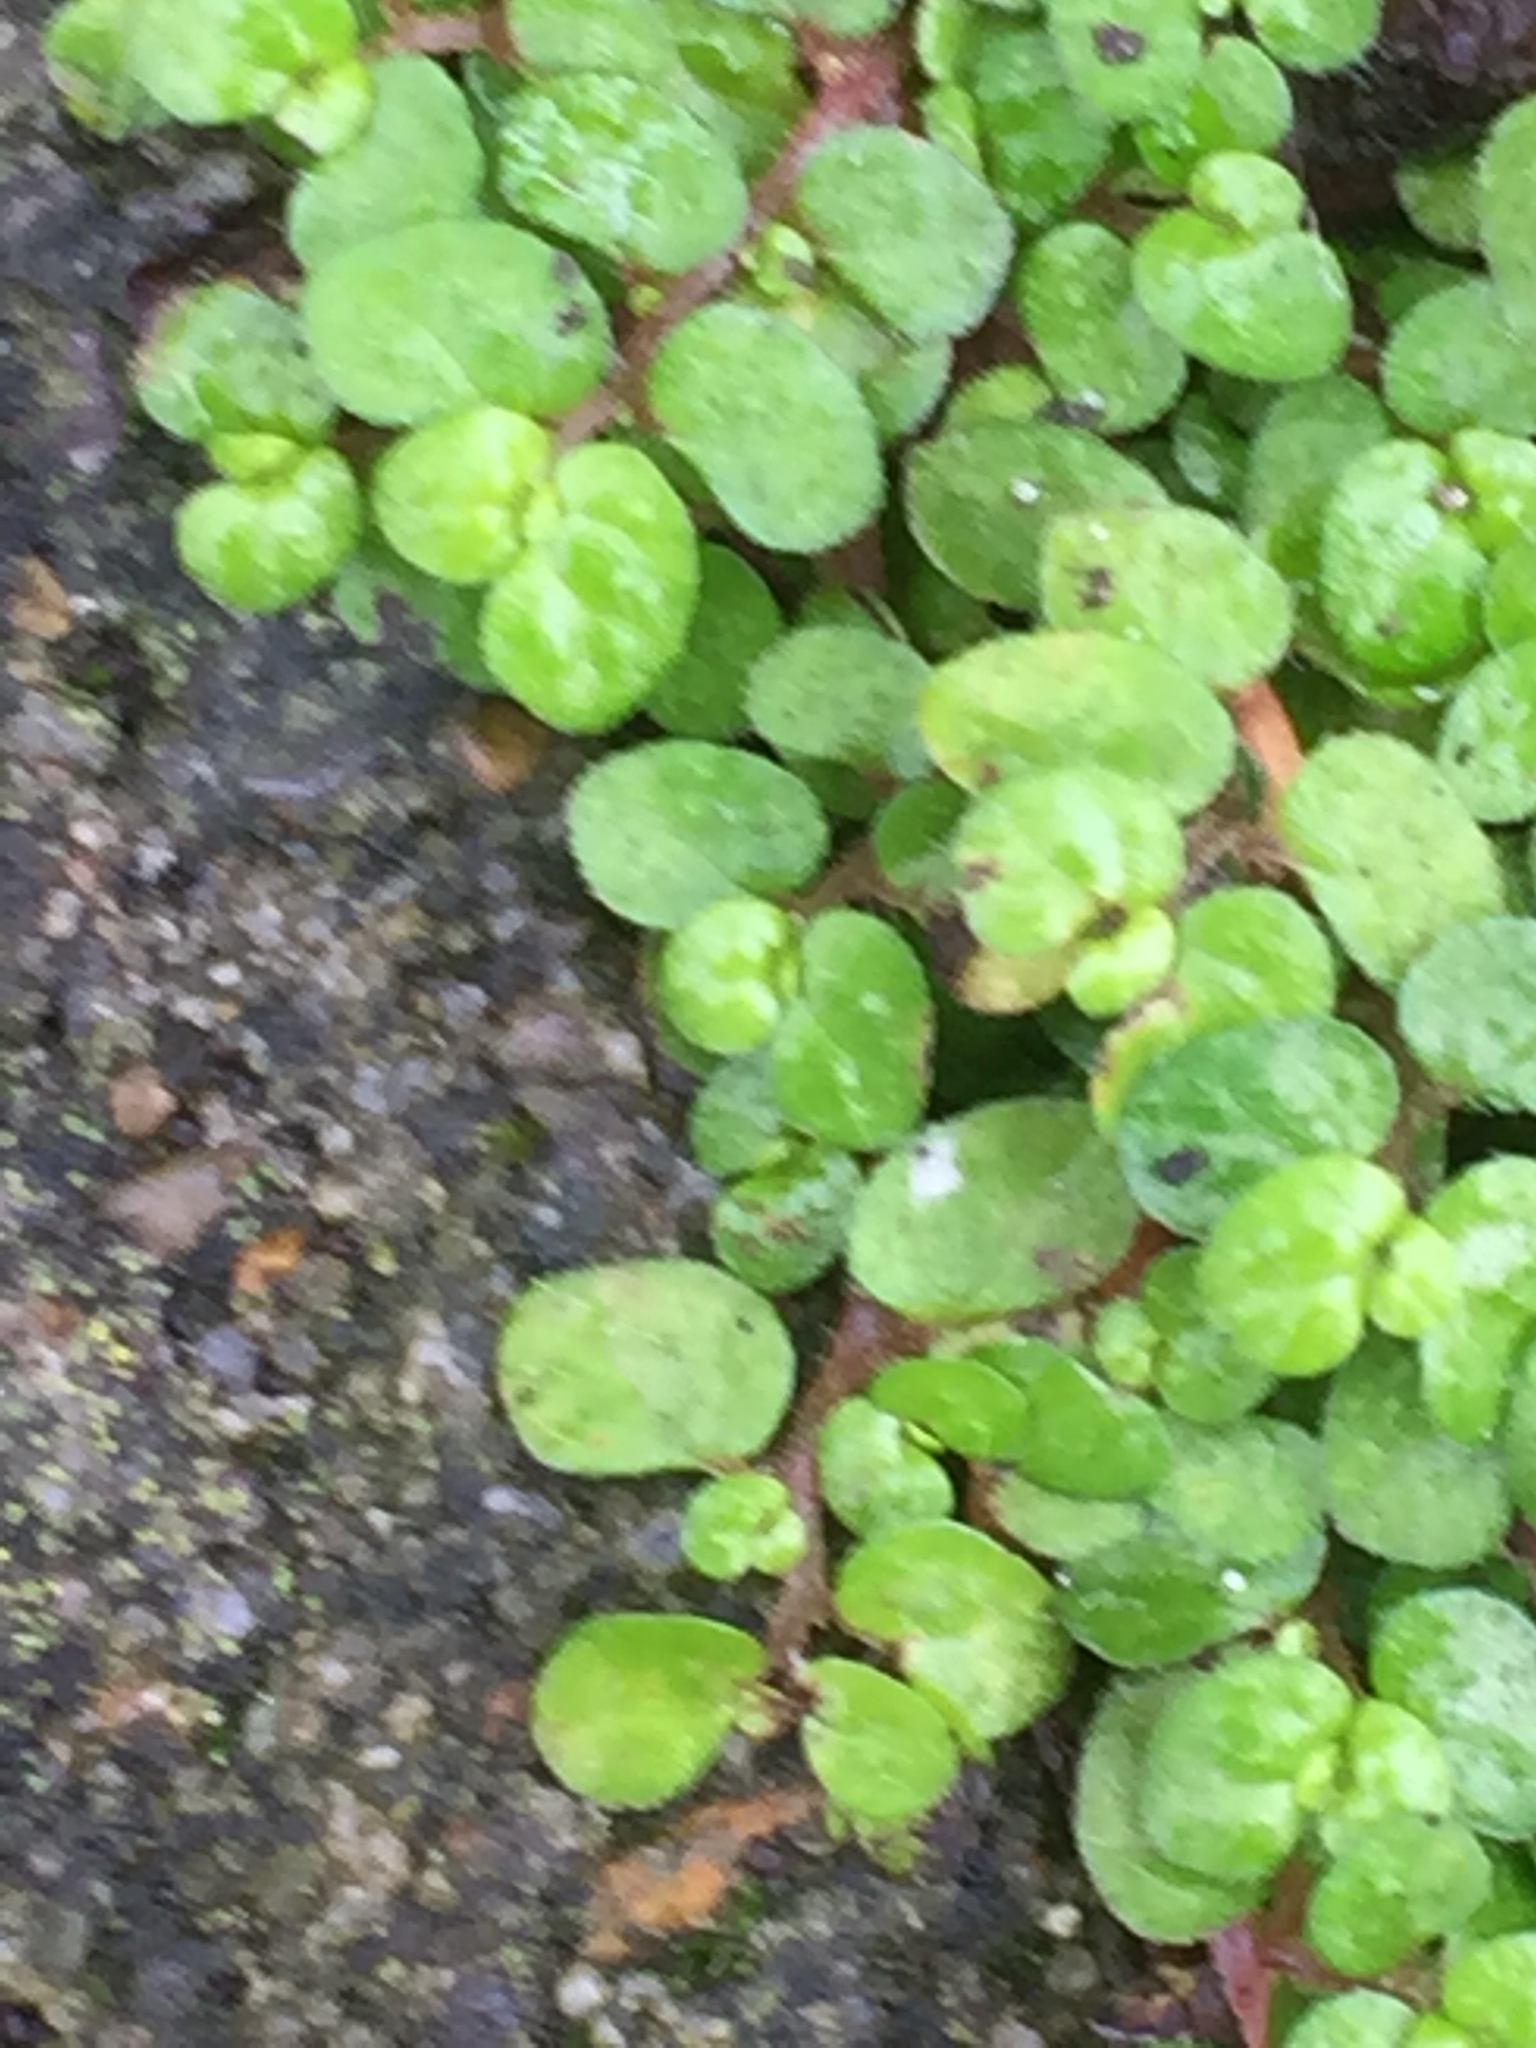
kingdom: Plantae
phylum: Tracheophyta
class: Magnoliopsida
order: Rosales
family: Urticaceae
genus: Soleirolia
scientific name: Soleirolia soleirolii
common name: Mind-your-own-business
